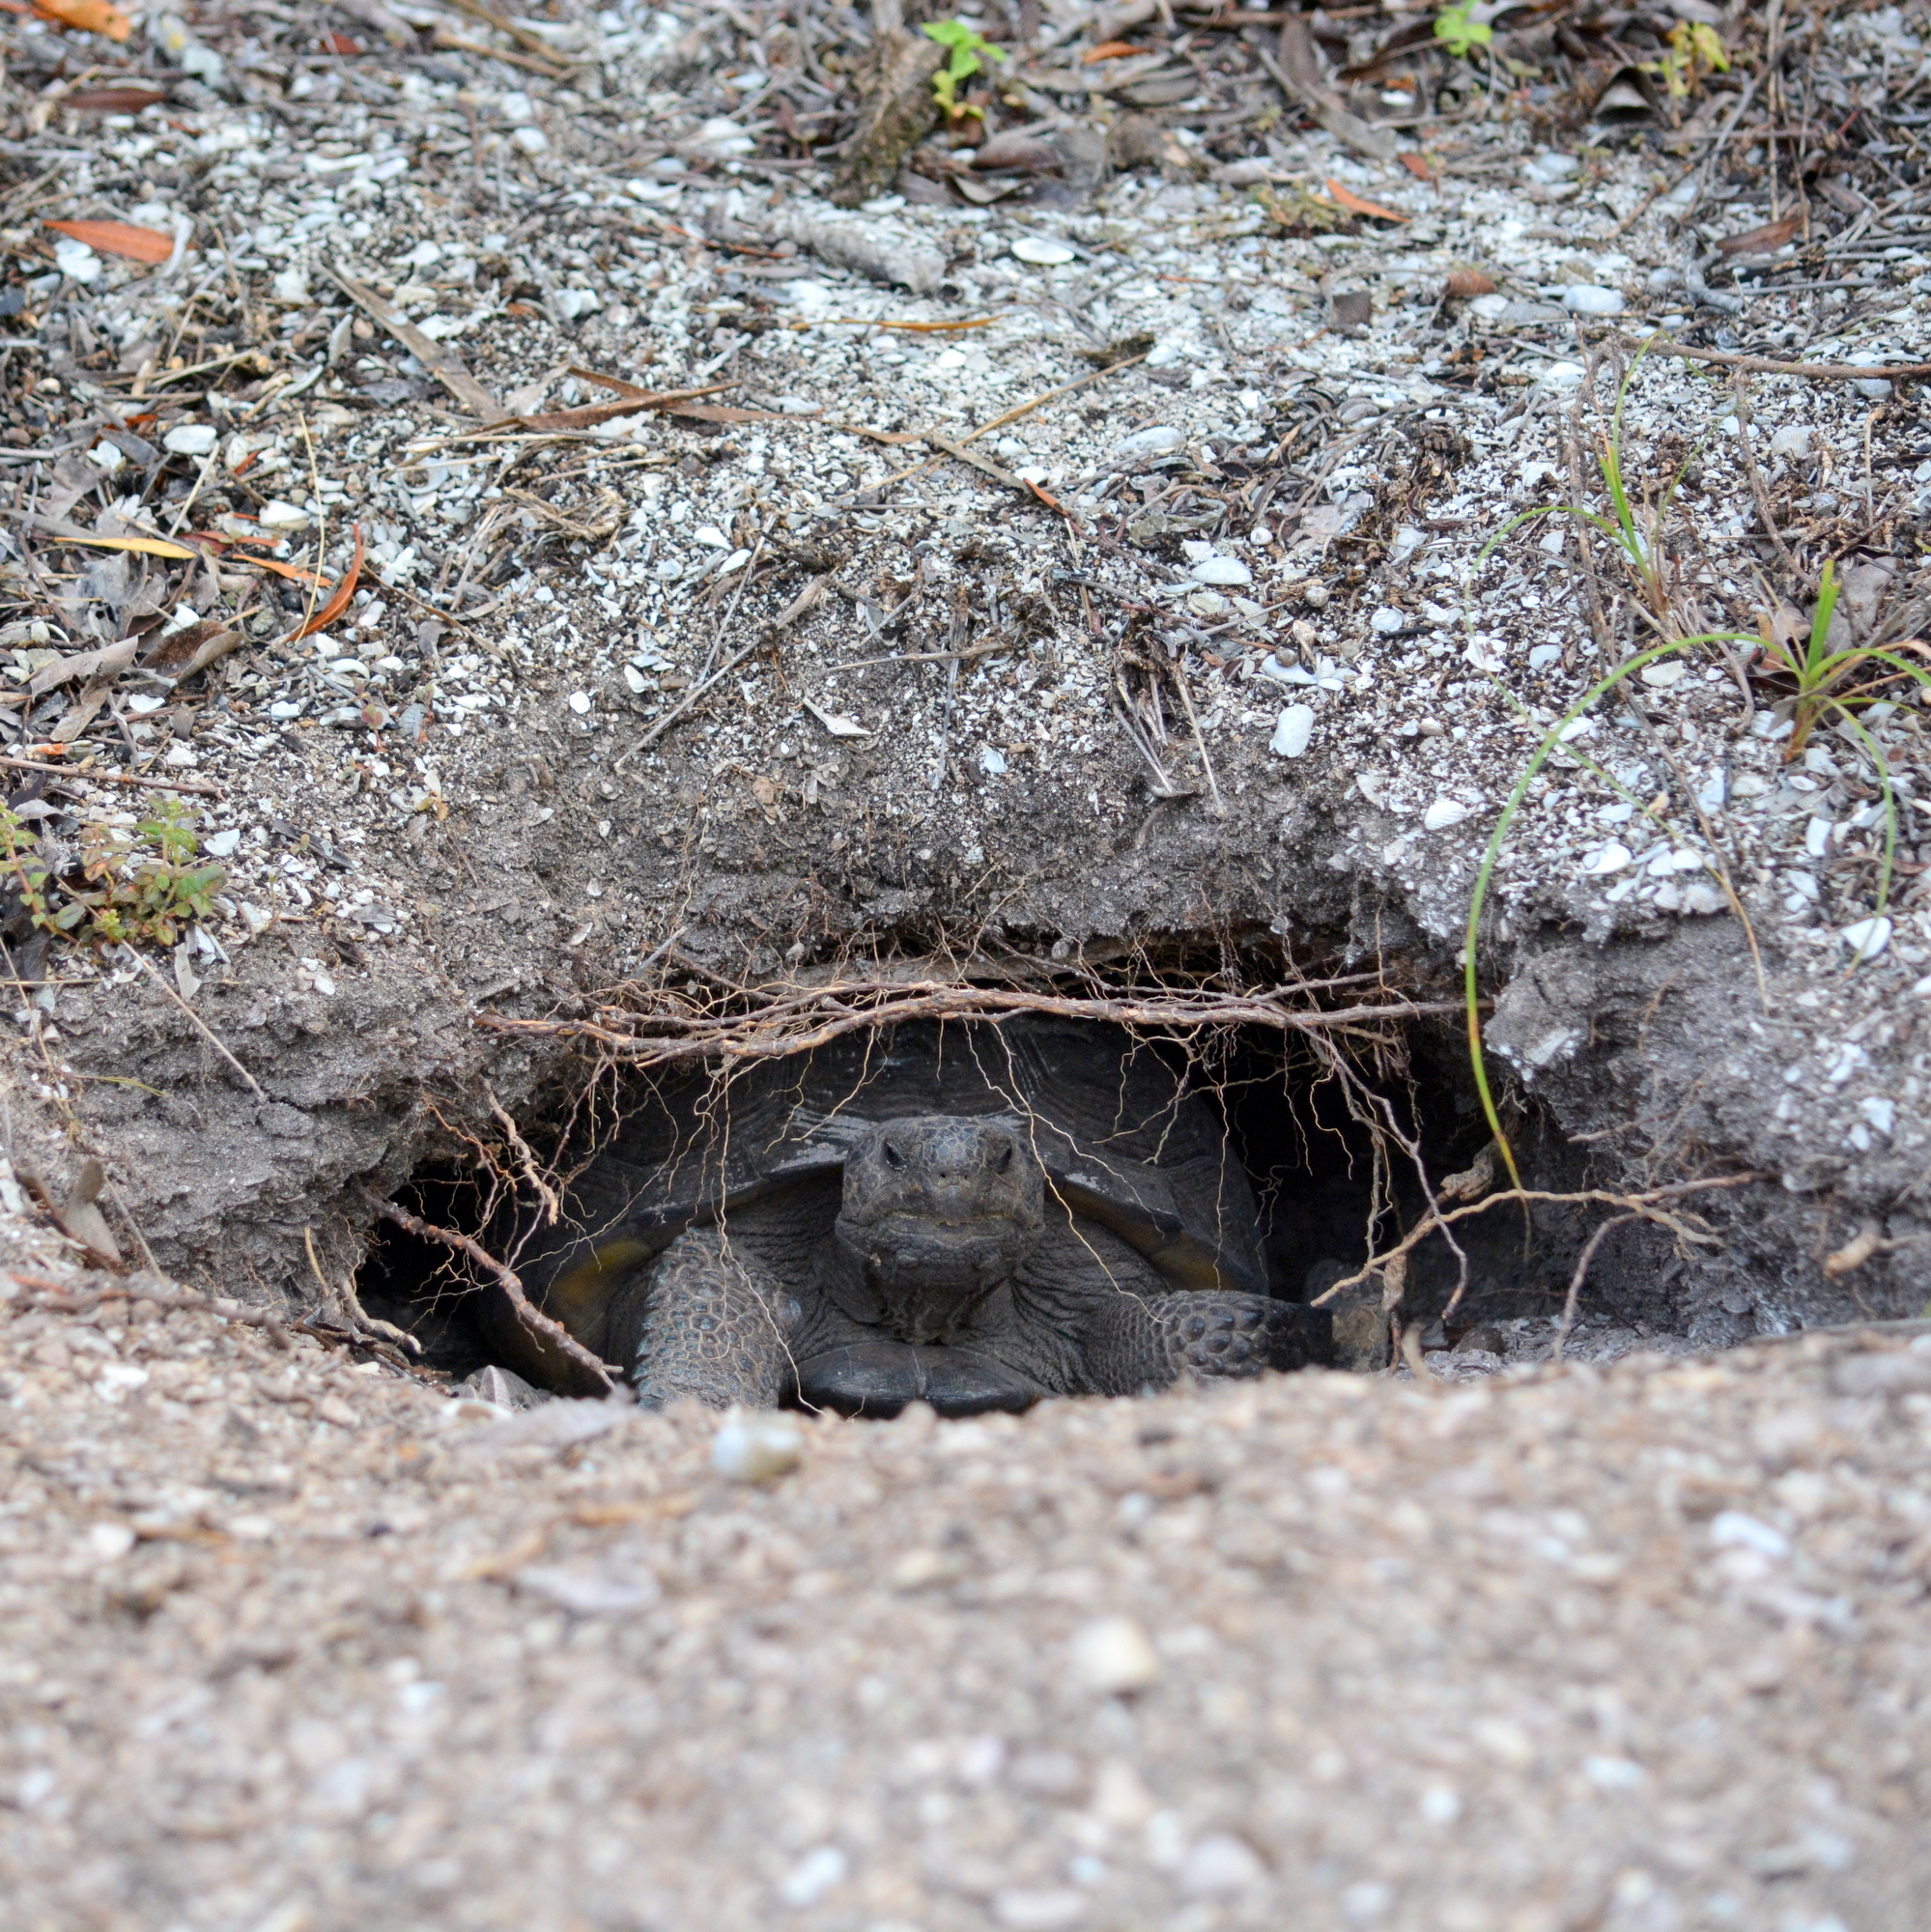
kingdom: Animalia
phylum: Chordata
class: Testudines
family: Testudinidae
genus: Gopherus
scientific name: Gopherus polyphemus
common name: Florida gopher tortoise
